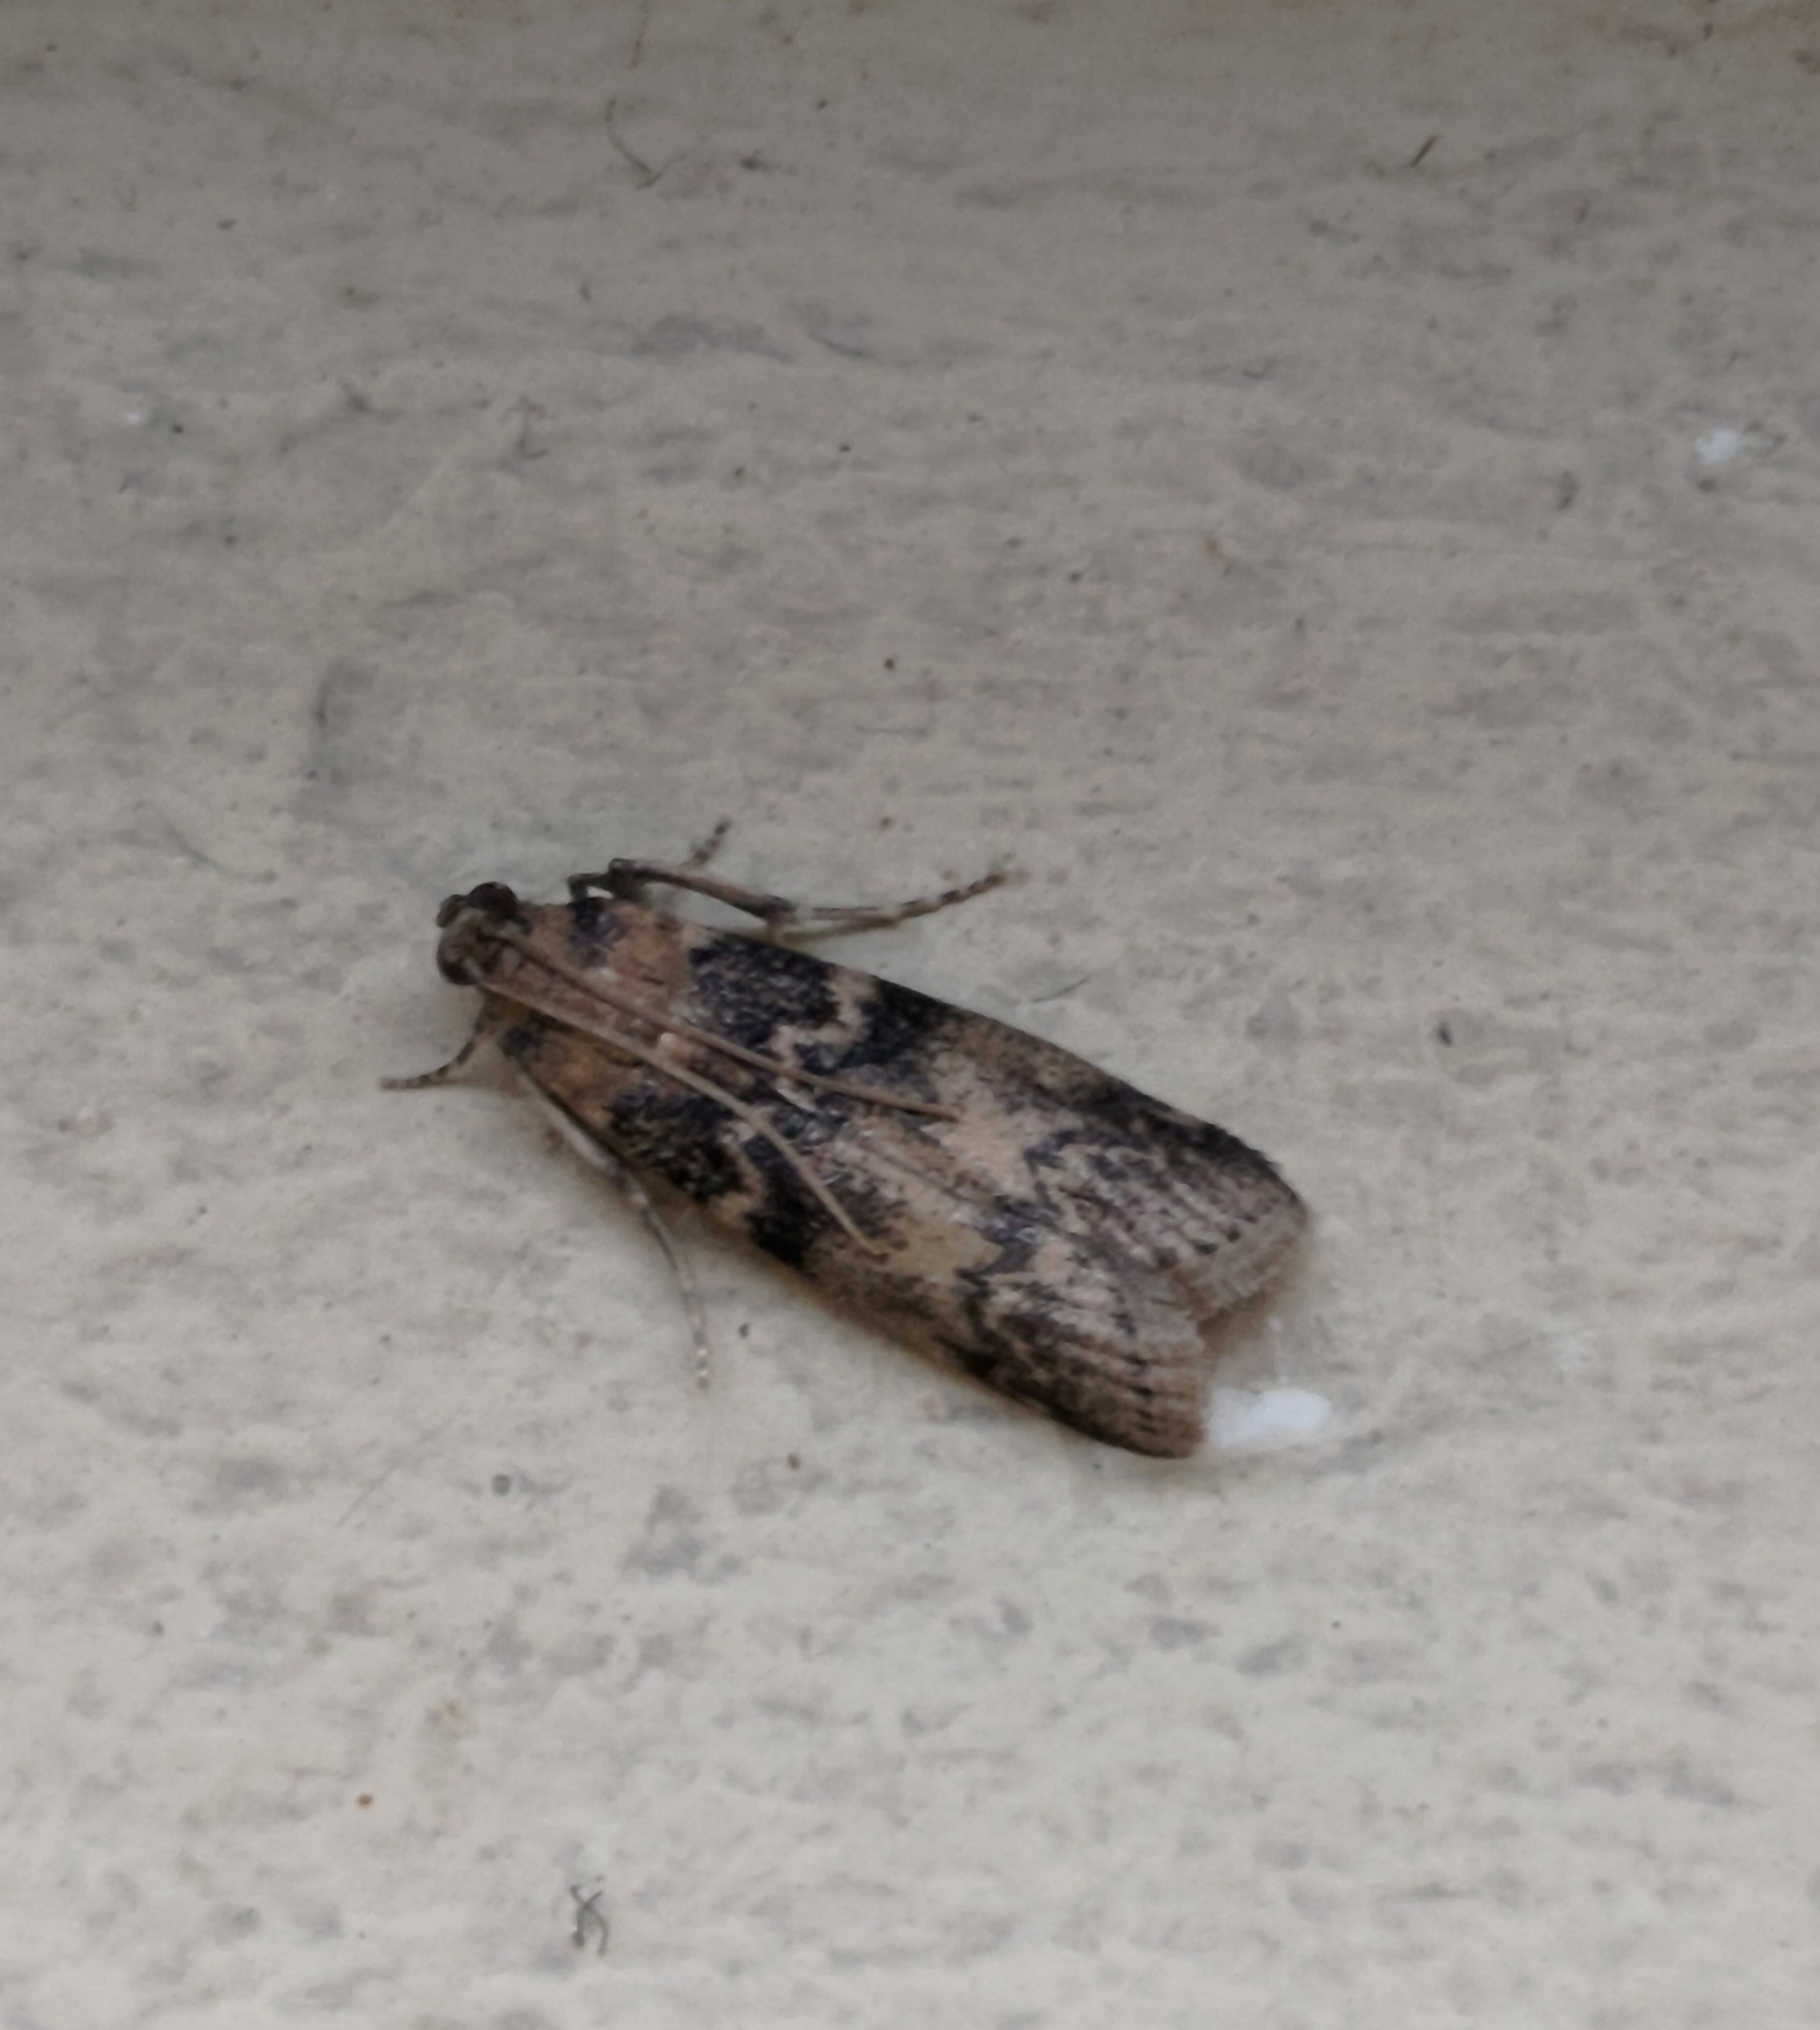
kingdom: Animalia
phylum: Arthropoda
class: Insecta
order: Lepidoptera
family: Pyralidae
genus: Euzophera
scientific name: Euzophera pinguis
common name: Ash-bark knot-horn
